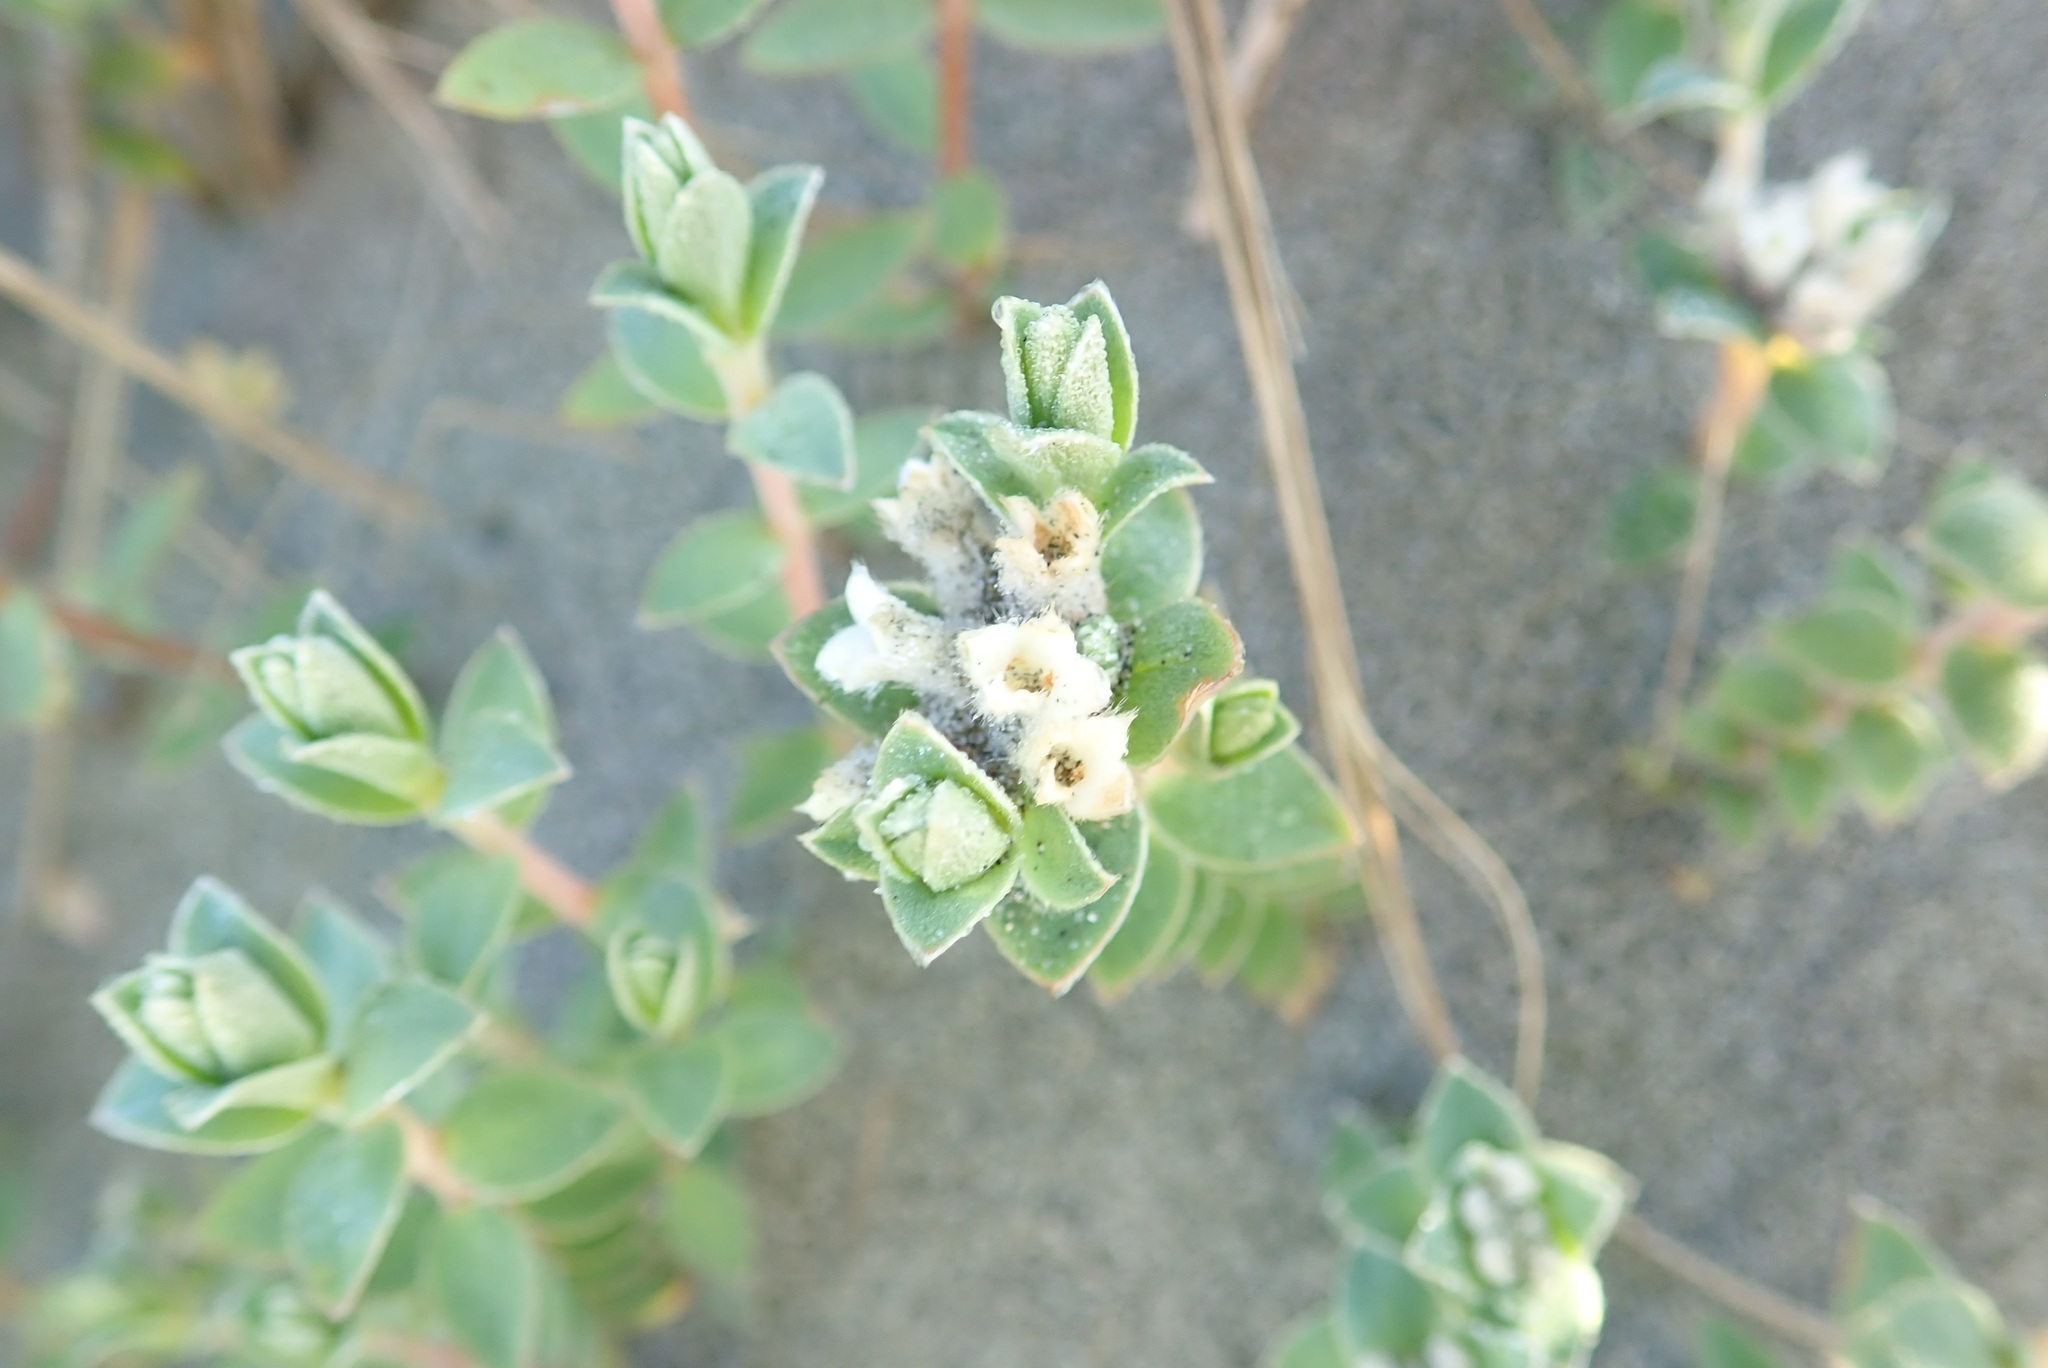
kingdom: Plantae
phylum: Tracheophyta
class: Magnoliopsida
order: Malvales
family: Thymelaeaceae
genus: Pimelea
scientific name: Pimelea villosa
